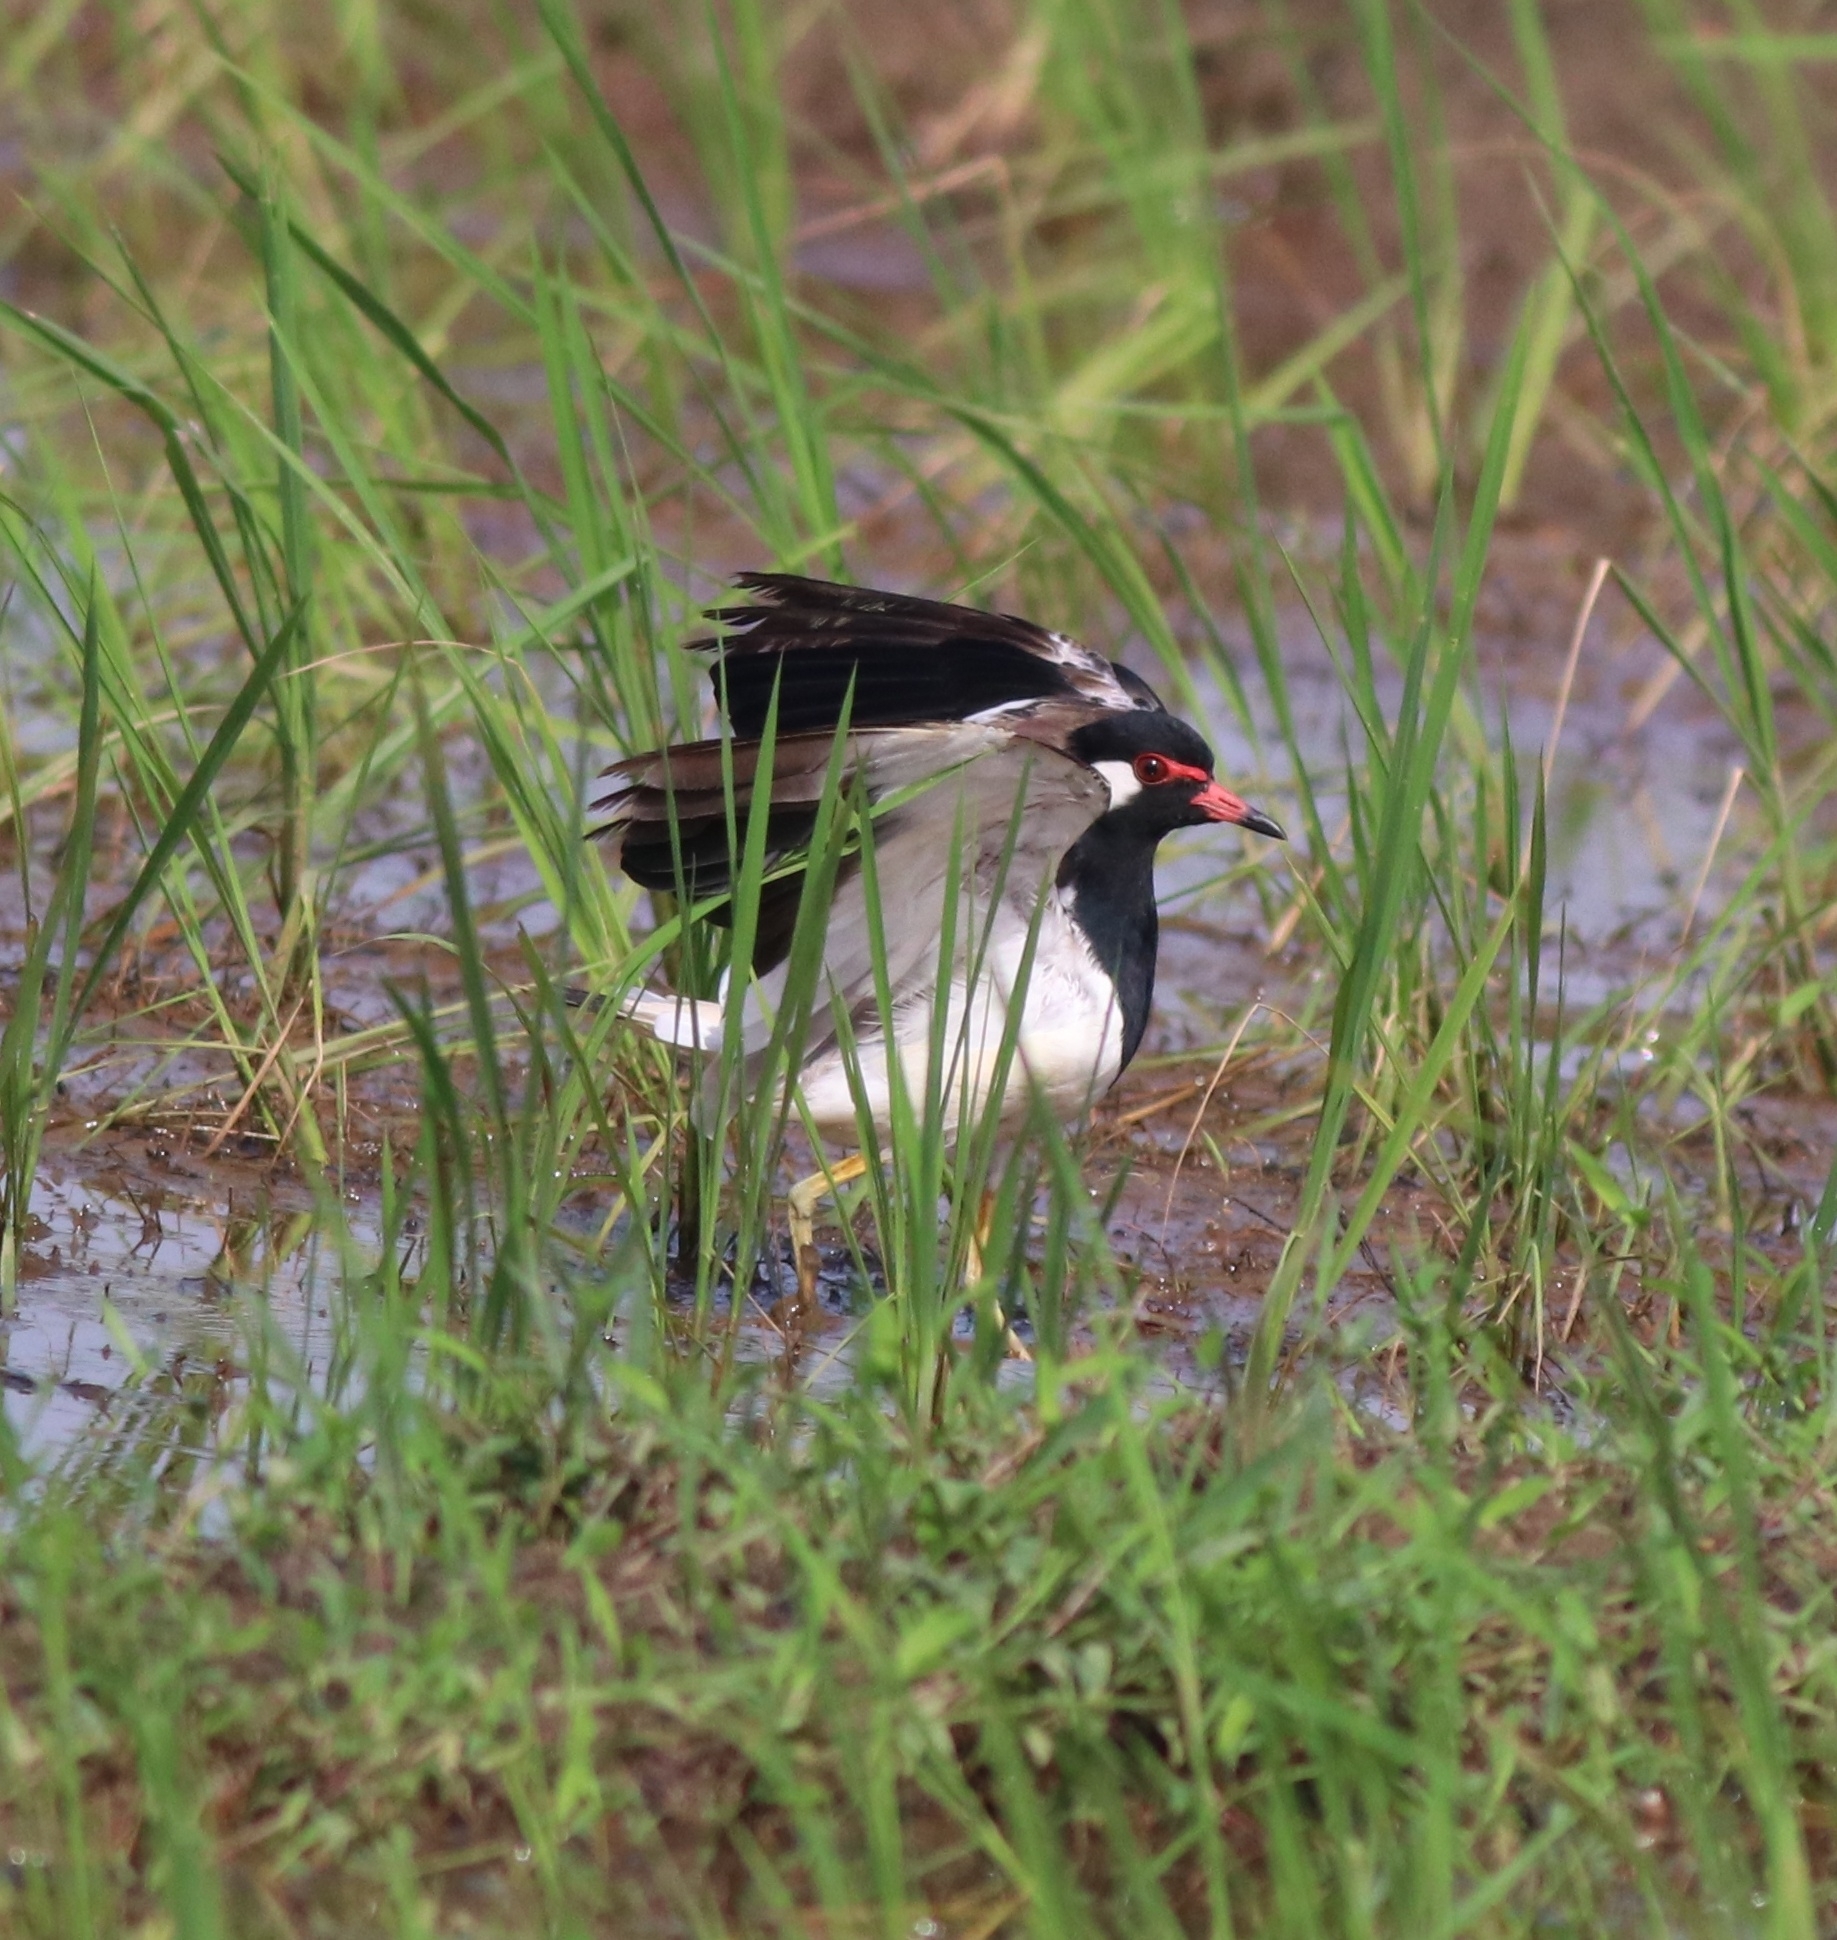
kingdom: Animalia
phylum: Chordata
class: Aves
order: Charadriiformes
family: Charadriidae
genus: Vanellus
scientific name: Vanellus indicus
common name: Red-wattled lapwing
